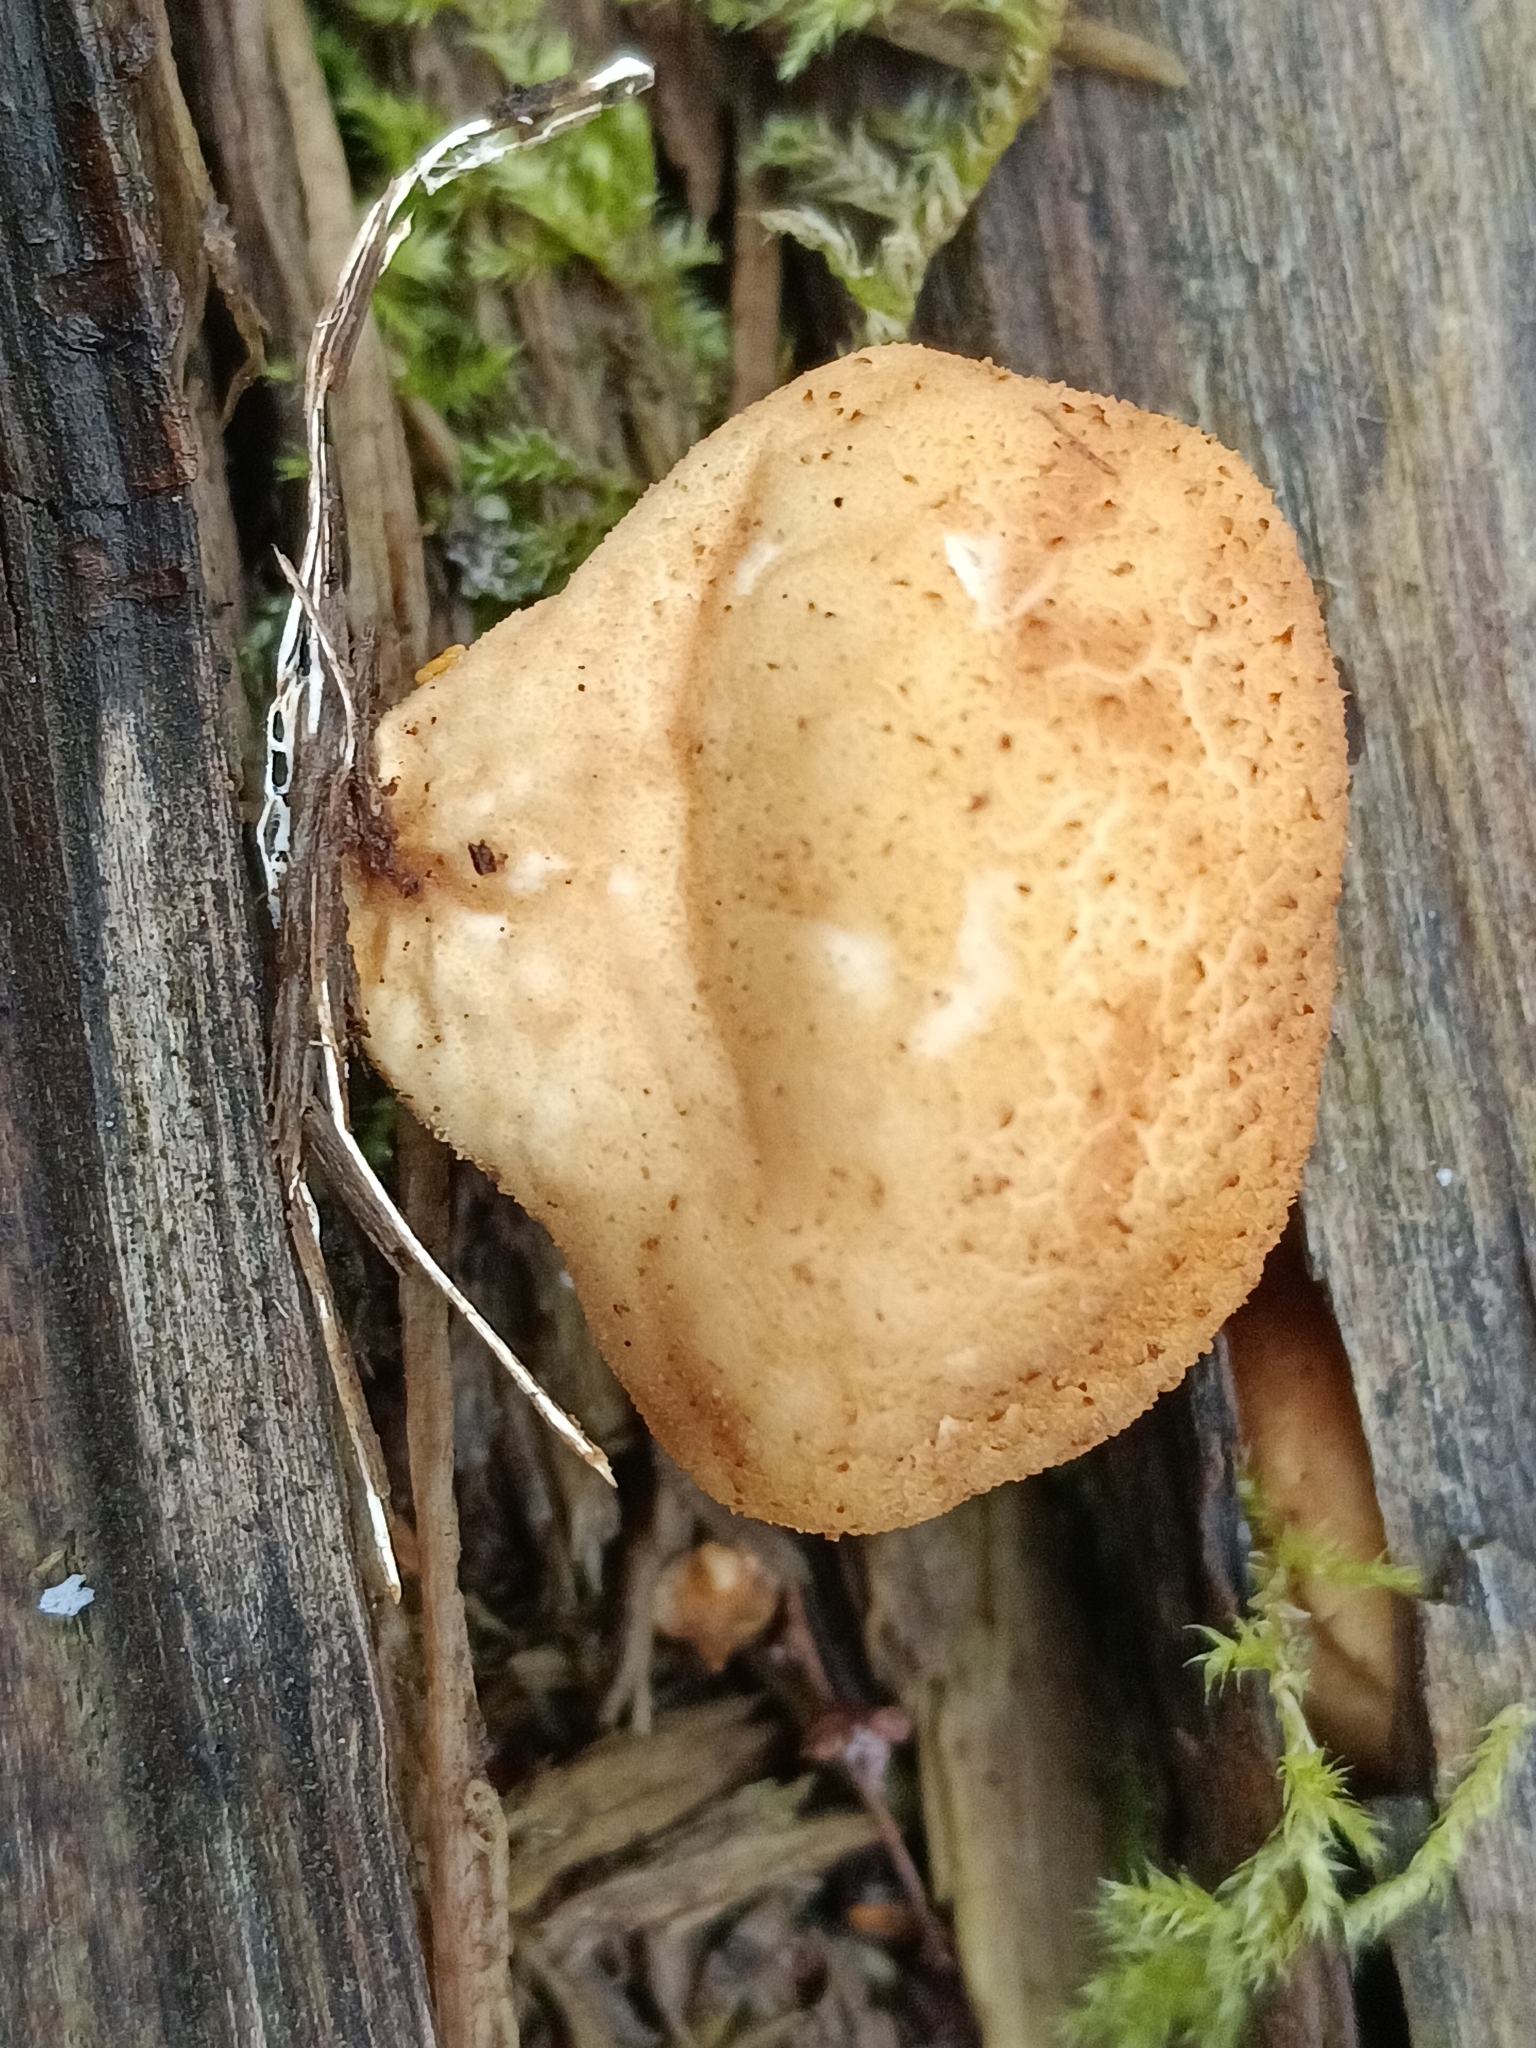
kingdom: Fungi
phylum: Basidiomycota
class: Agaricomycetes
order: Agaricales
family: Lycoperdaceae
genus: Apioperdon
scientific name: Apioperdon pyriforme
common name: Pear-shaped puffball
